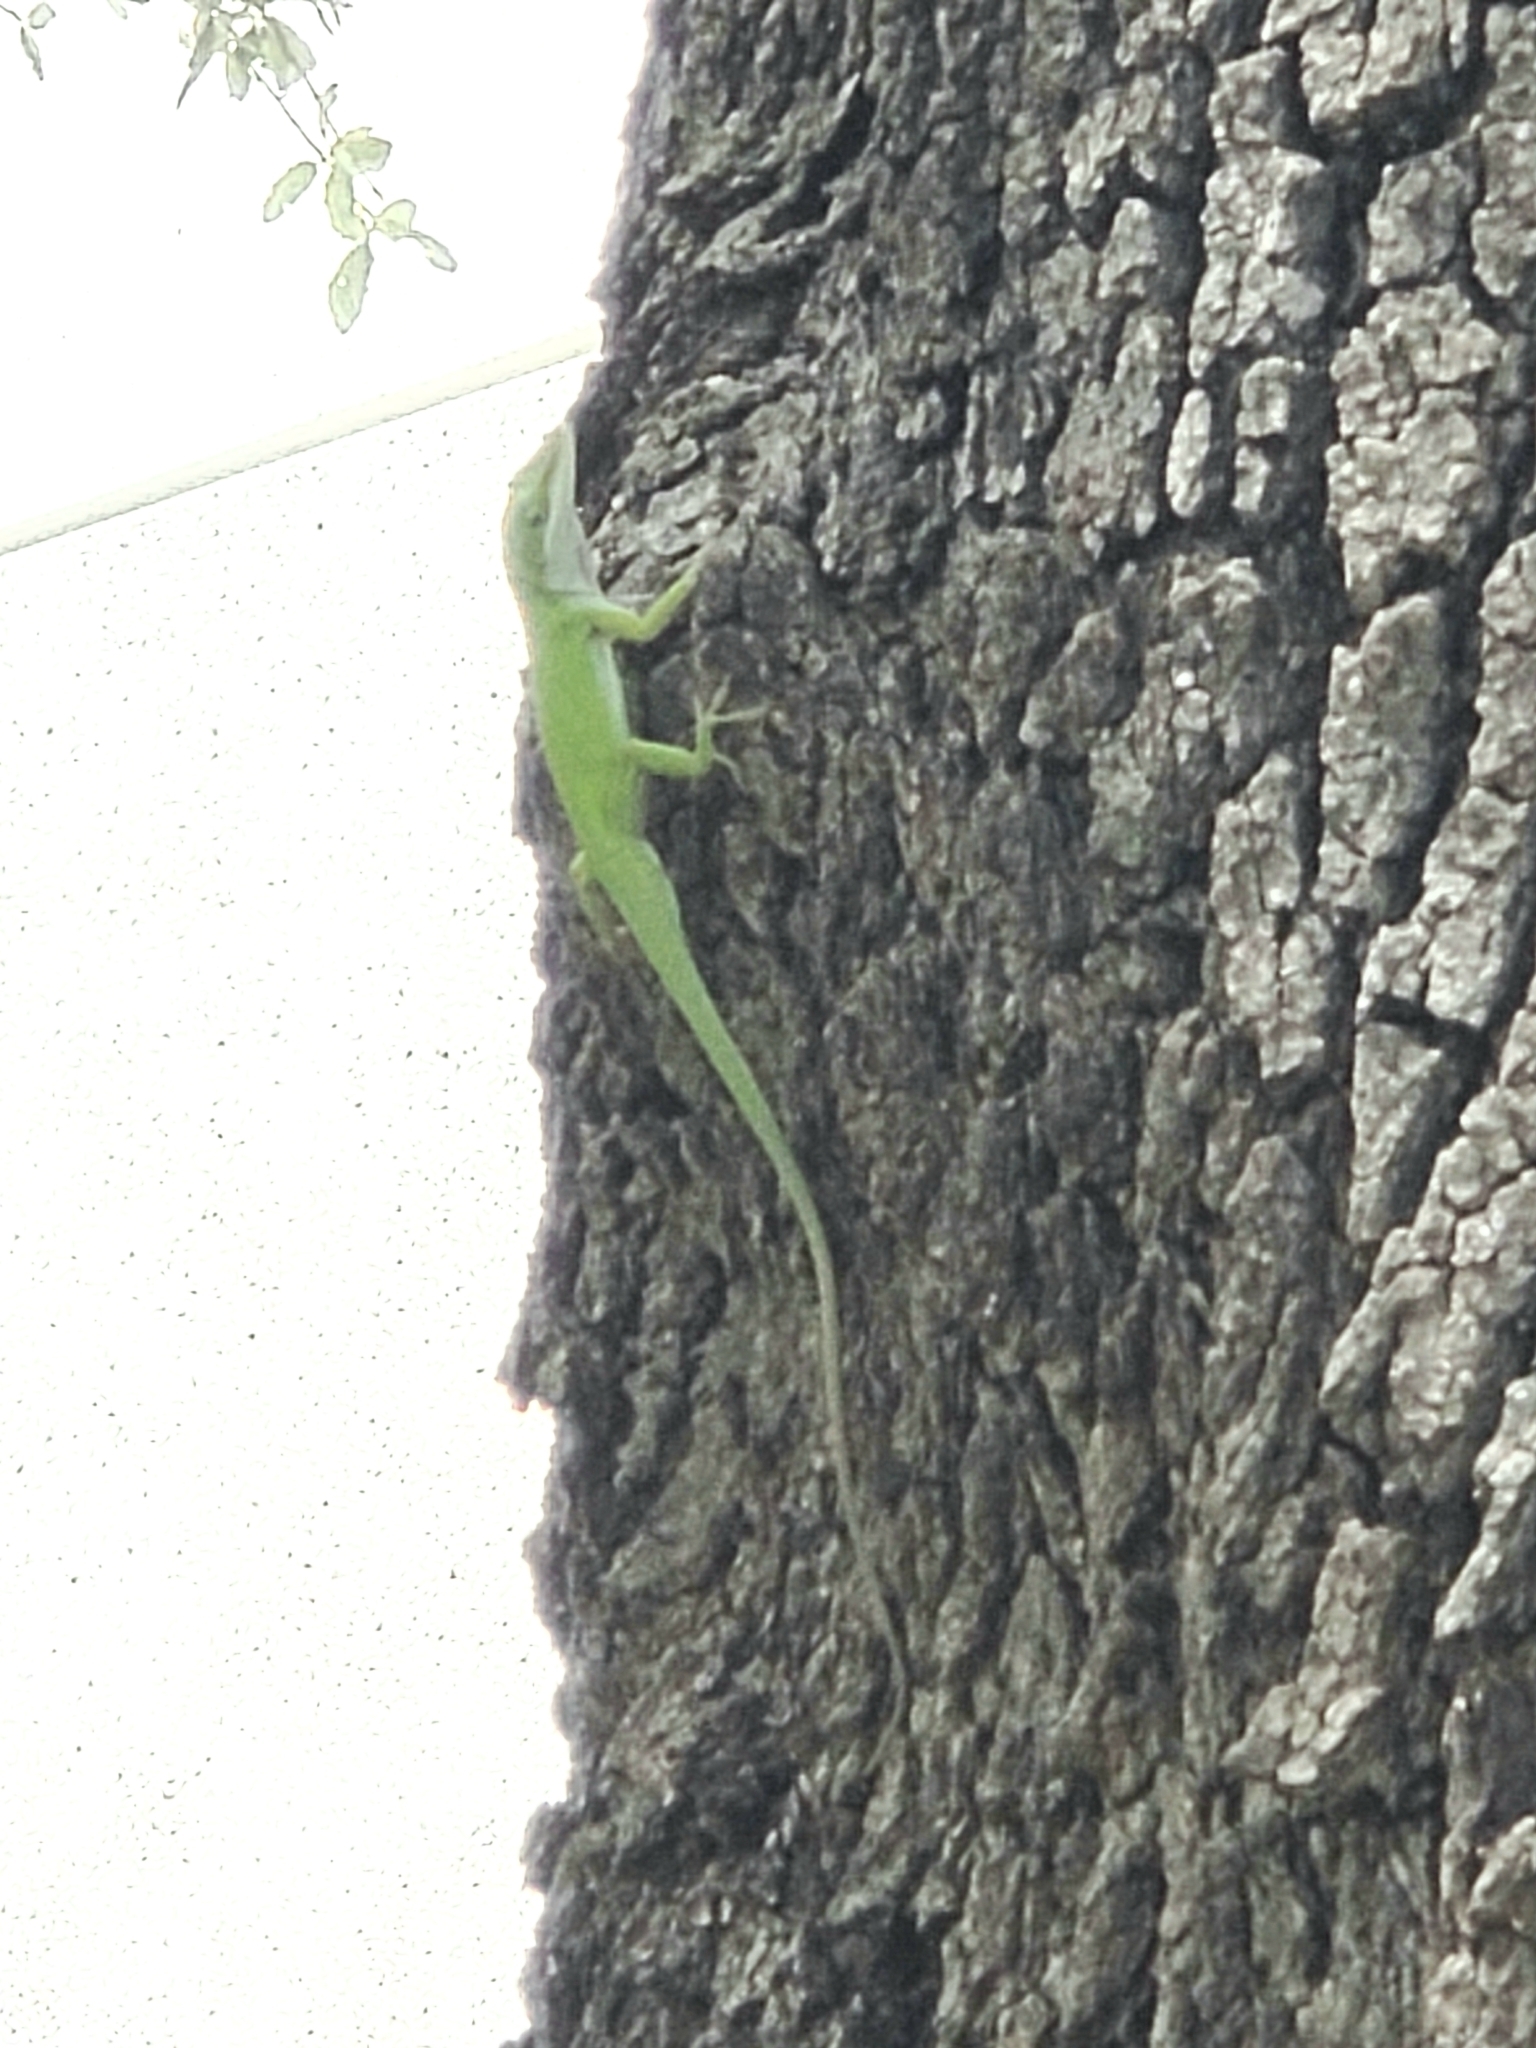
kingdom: Animalia
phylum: Chordata
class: Squamata
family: Dactyloidae
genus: Anolis
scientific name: Anolis carolinensis
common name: Green anole
